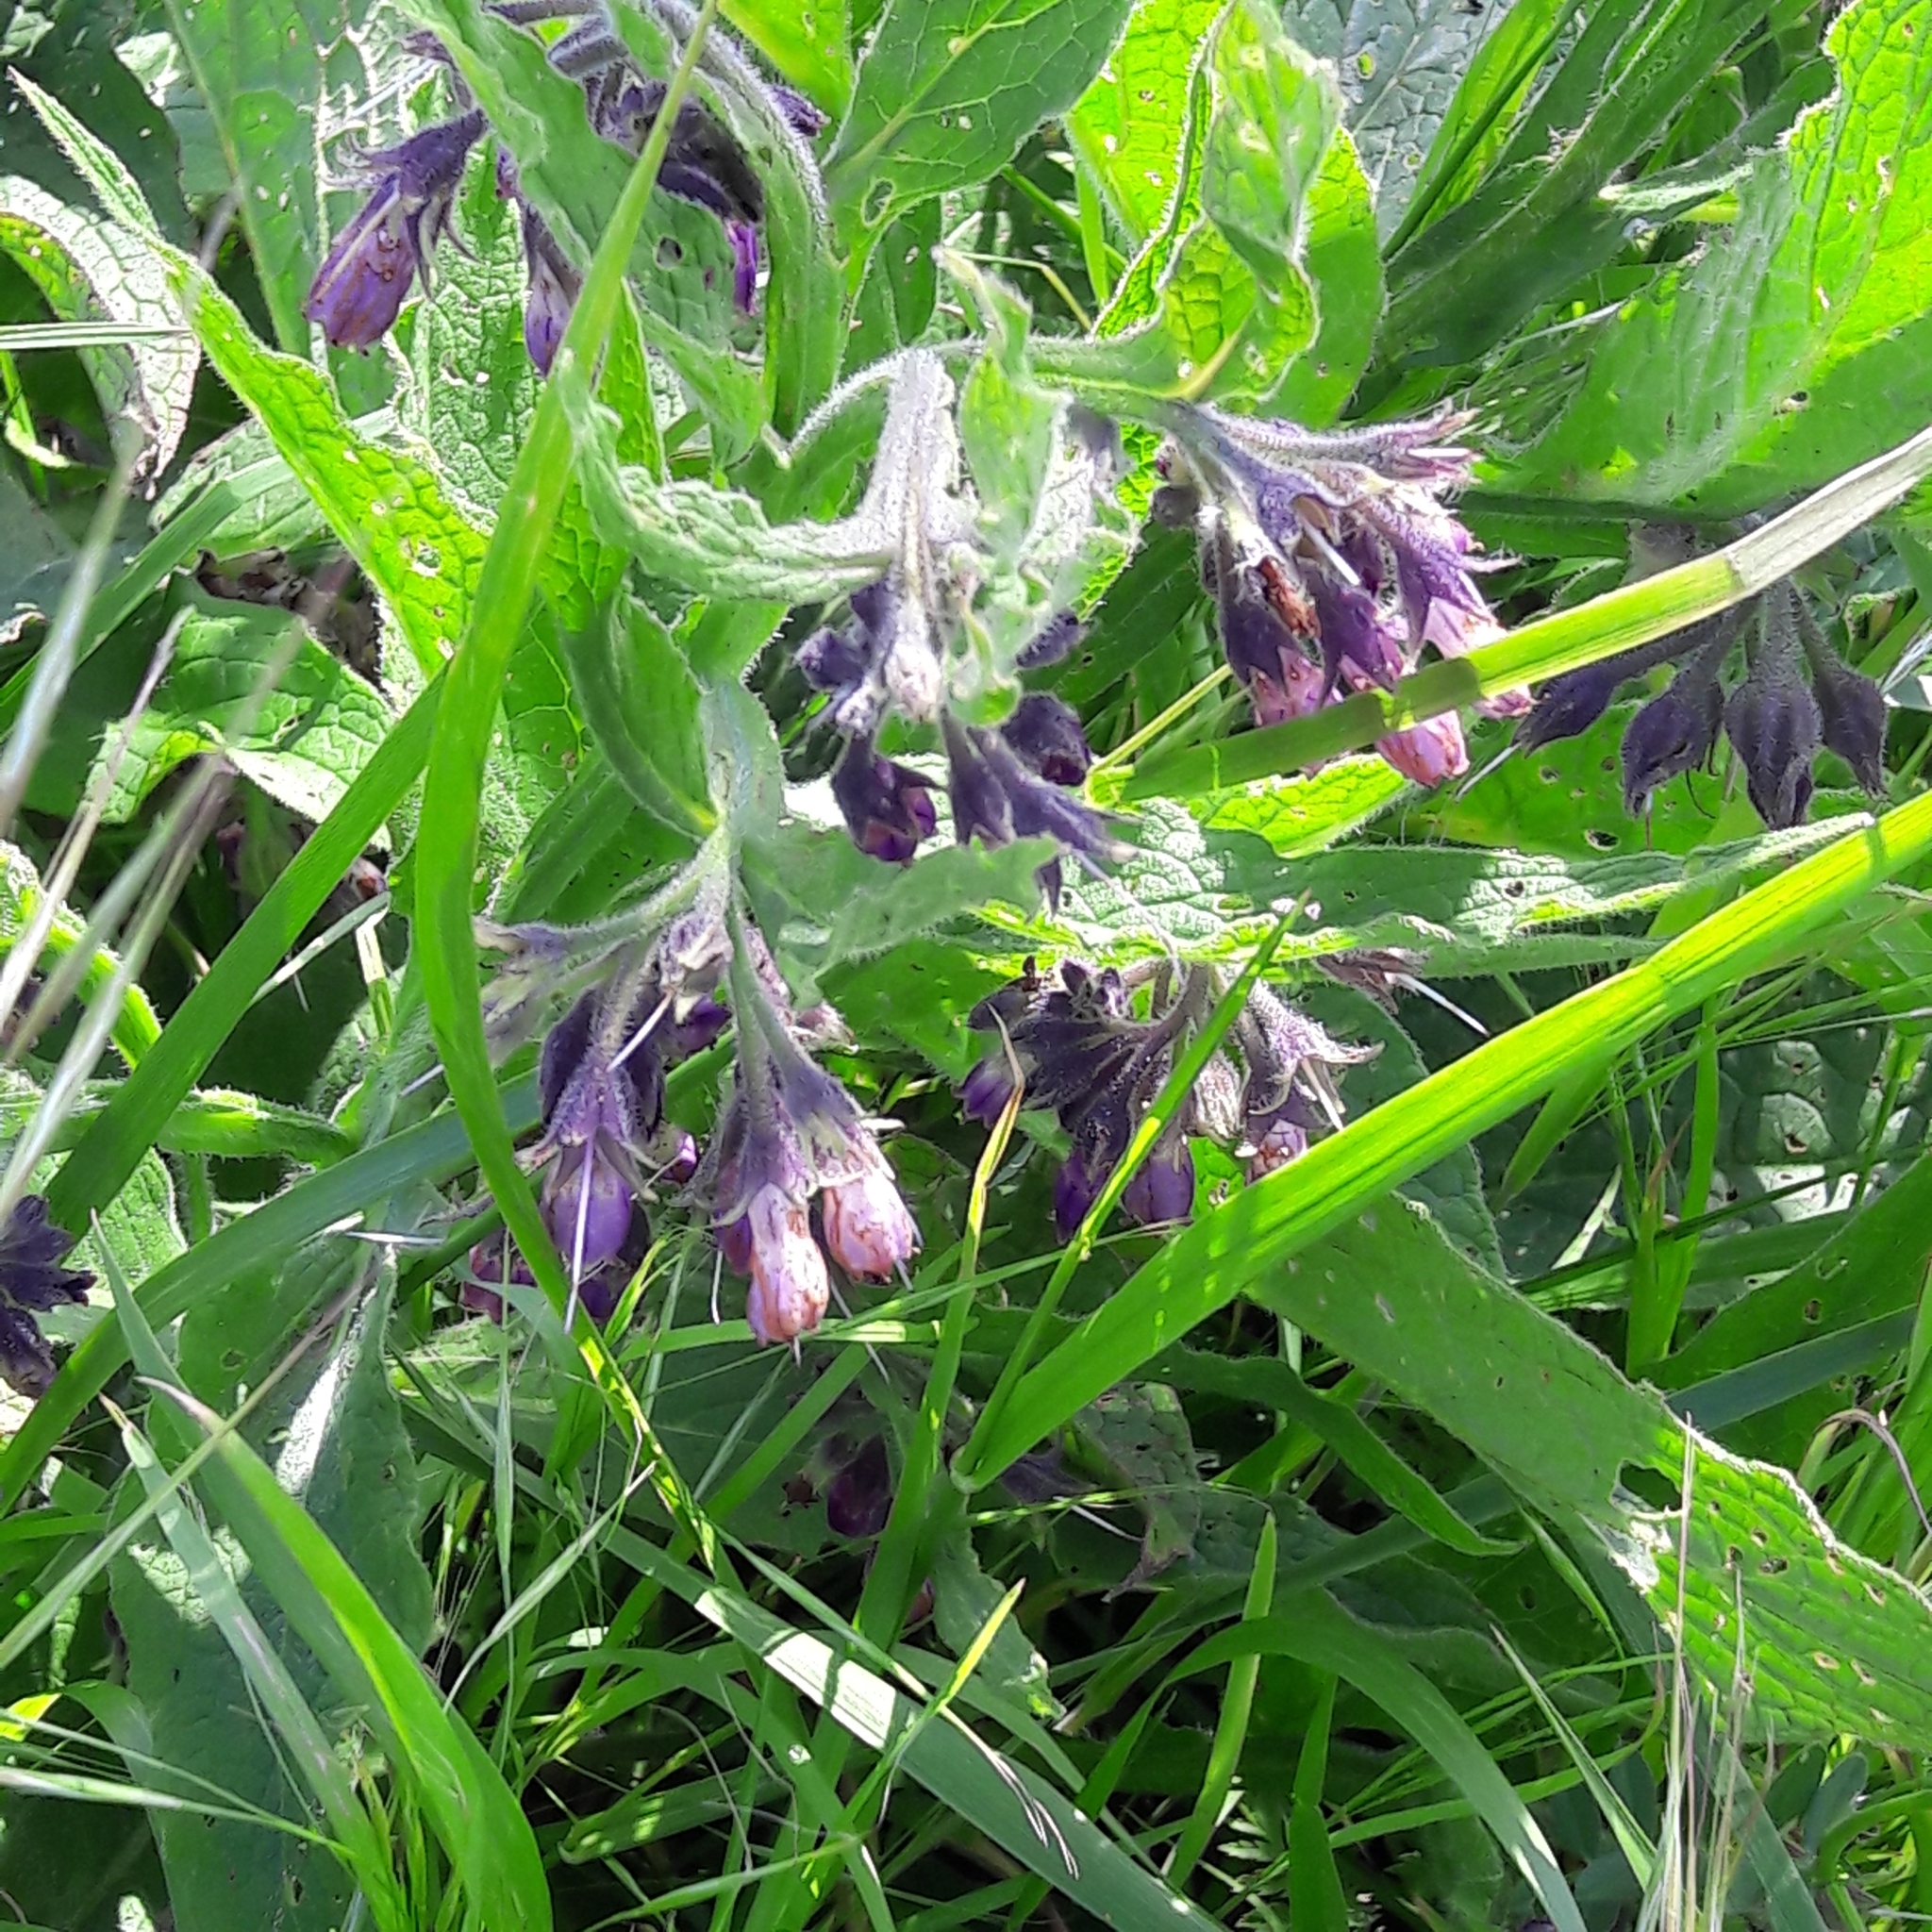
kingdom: Plantae
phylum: Tracheophyta
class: Magnoliopsida
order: Boraginales
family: Boraginaceae
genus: Symphytum
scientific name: Symphytum officinale
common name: Common comfrey
